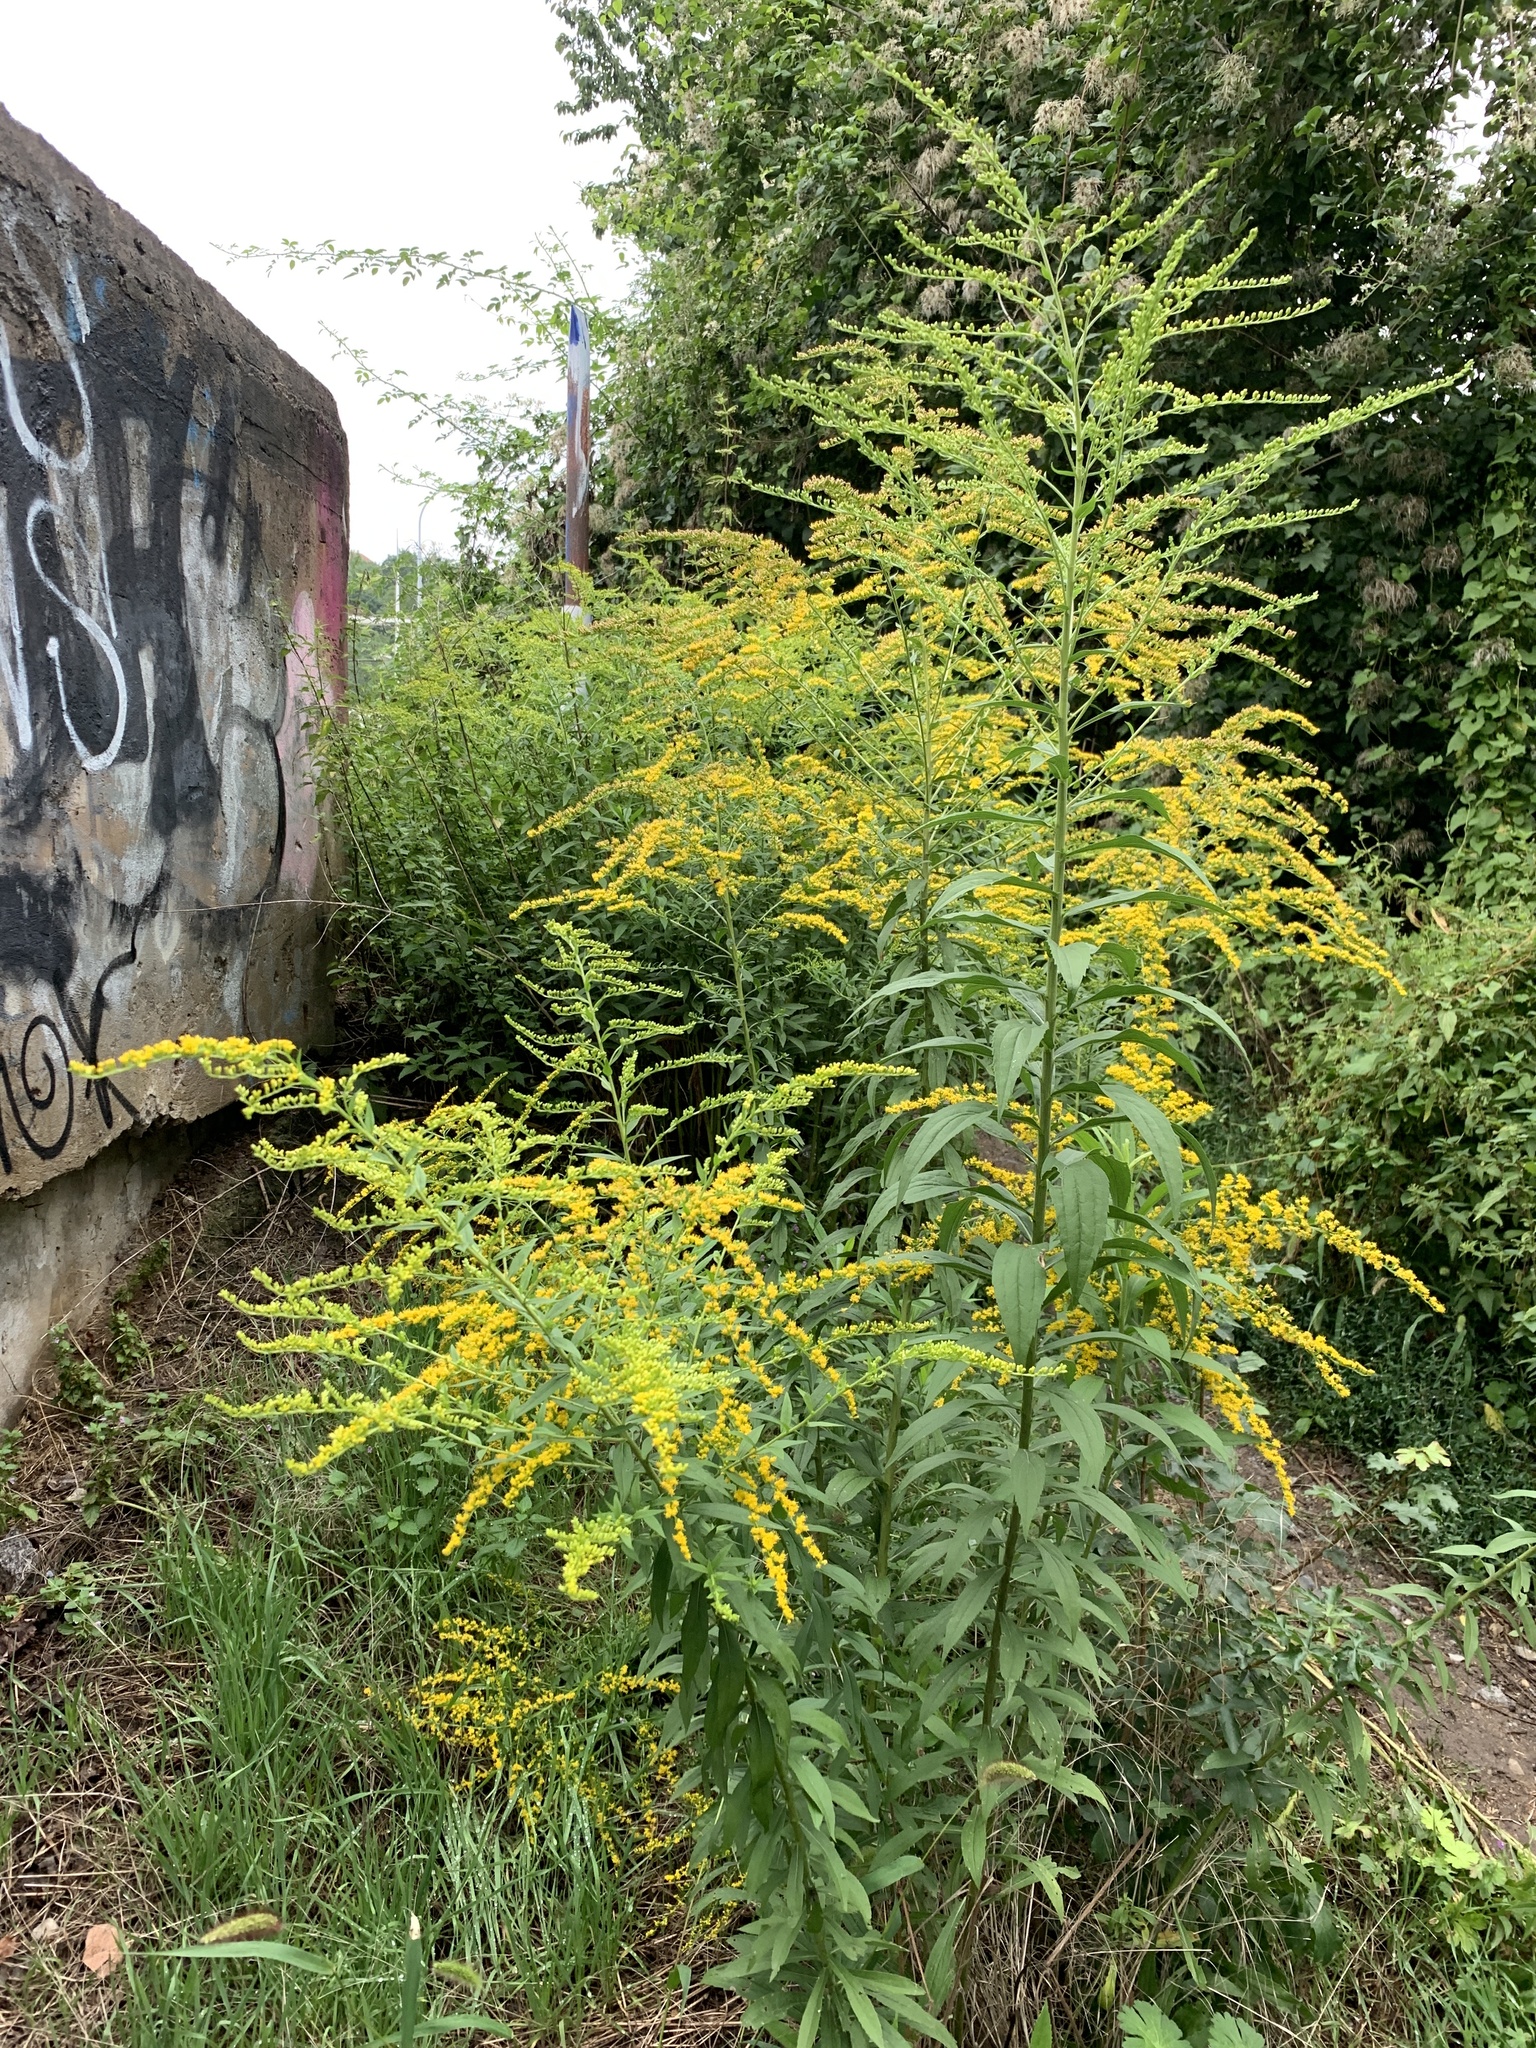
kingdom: Plantae
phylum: Tracheophyta
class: Magnoliopsida
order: Asterales
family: Asteraceae
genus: Solidago
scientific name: Solidago canadensis
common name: Canada goldenrod
